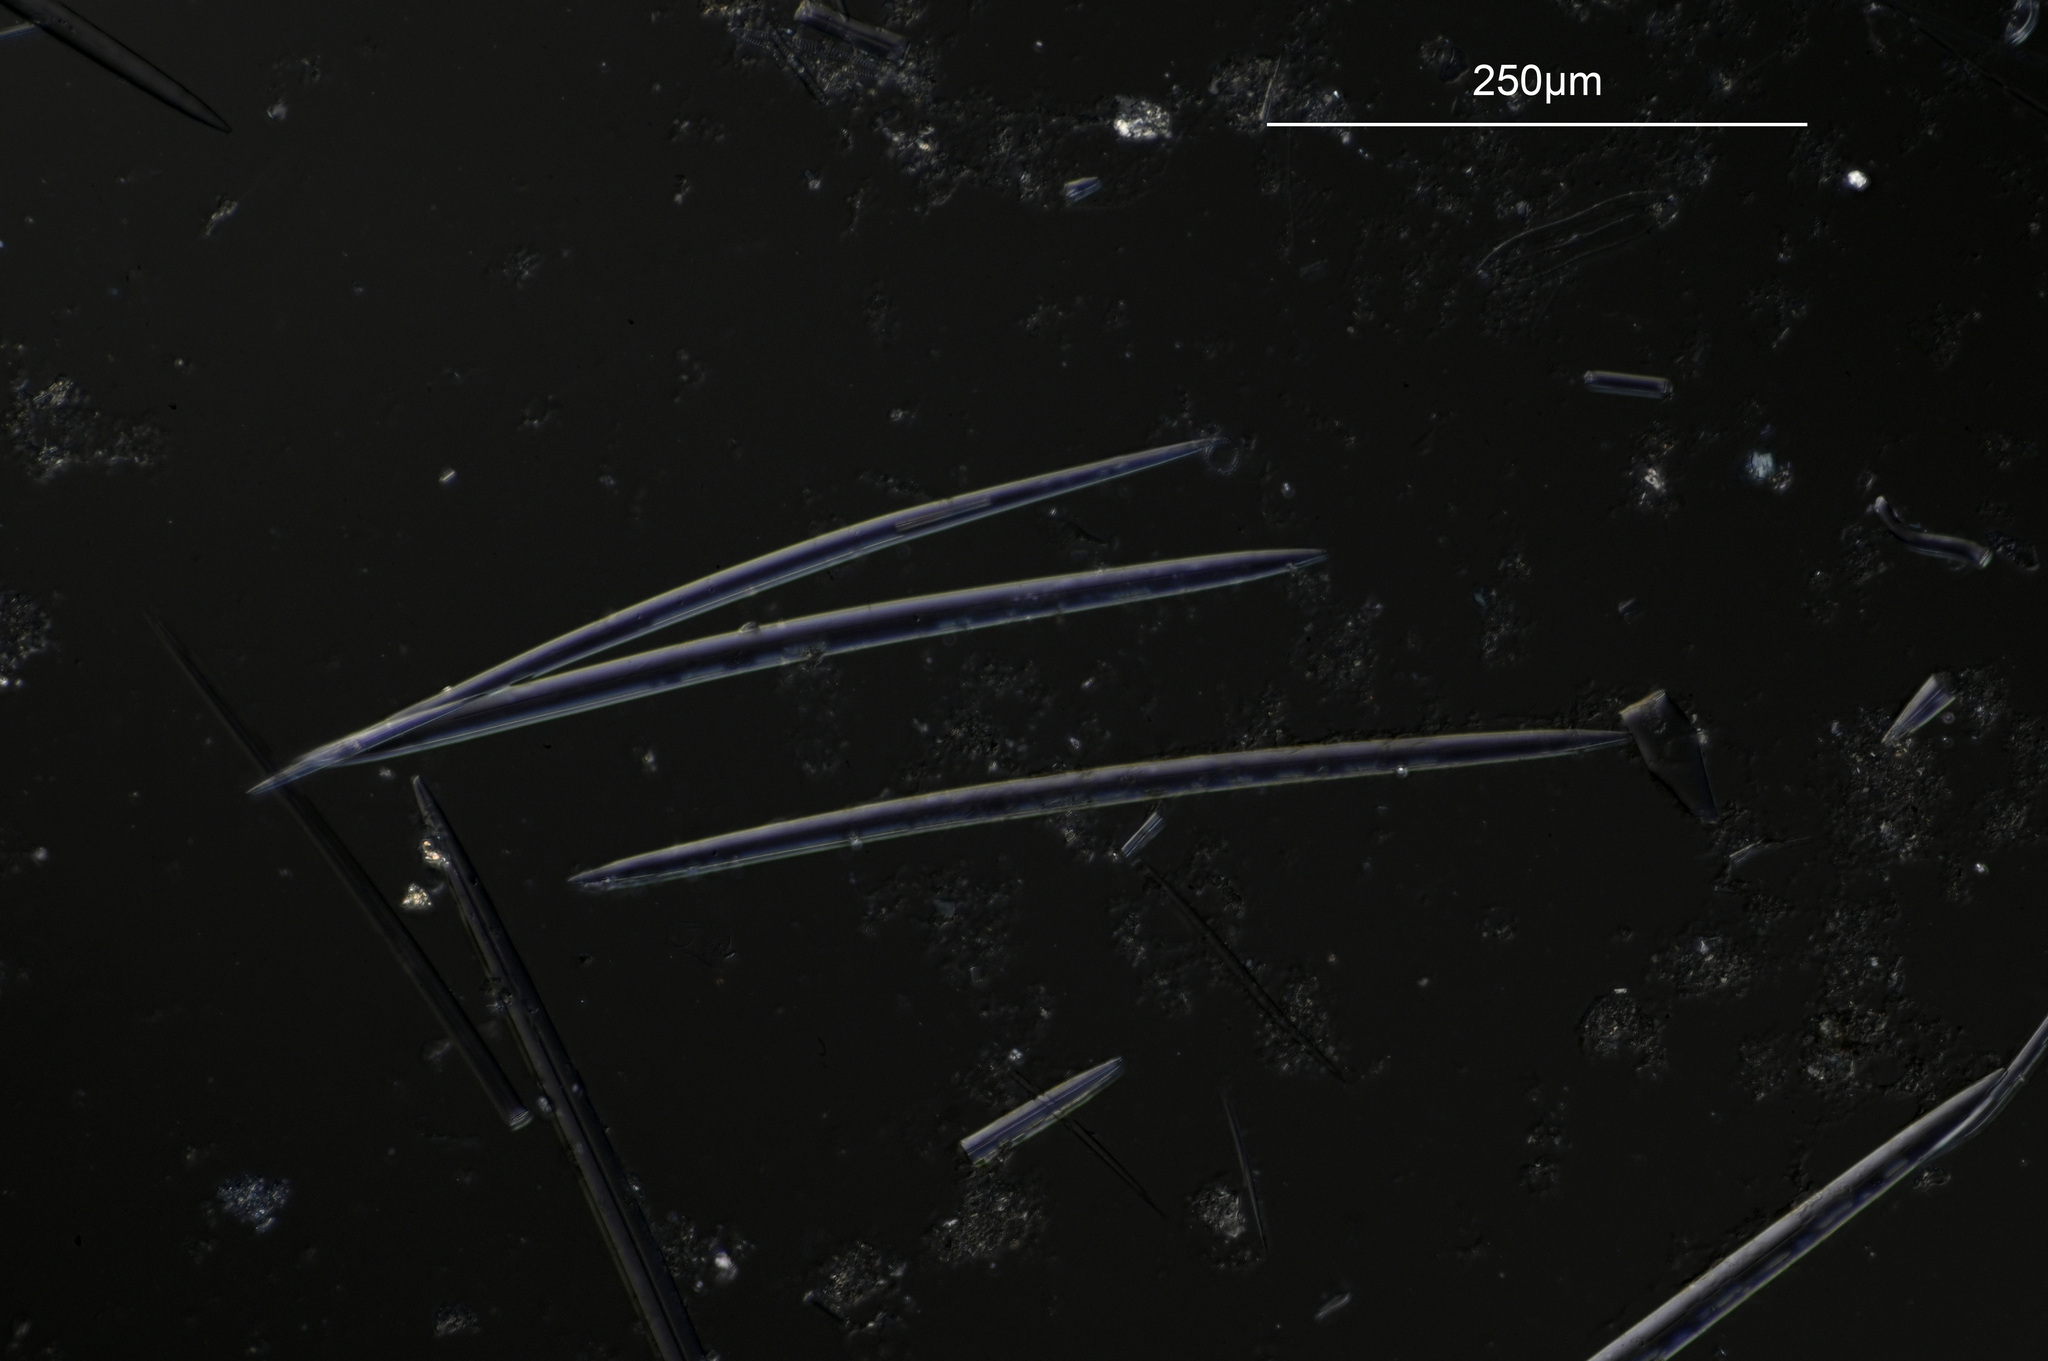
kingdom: Animalia
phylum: Porifera
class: Demospongiae
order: Bubarida
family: Desmanthidae
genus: Petromica
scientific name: Petromica ciocalyptoides
